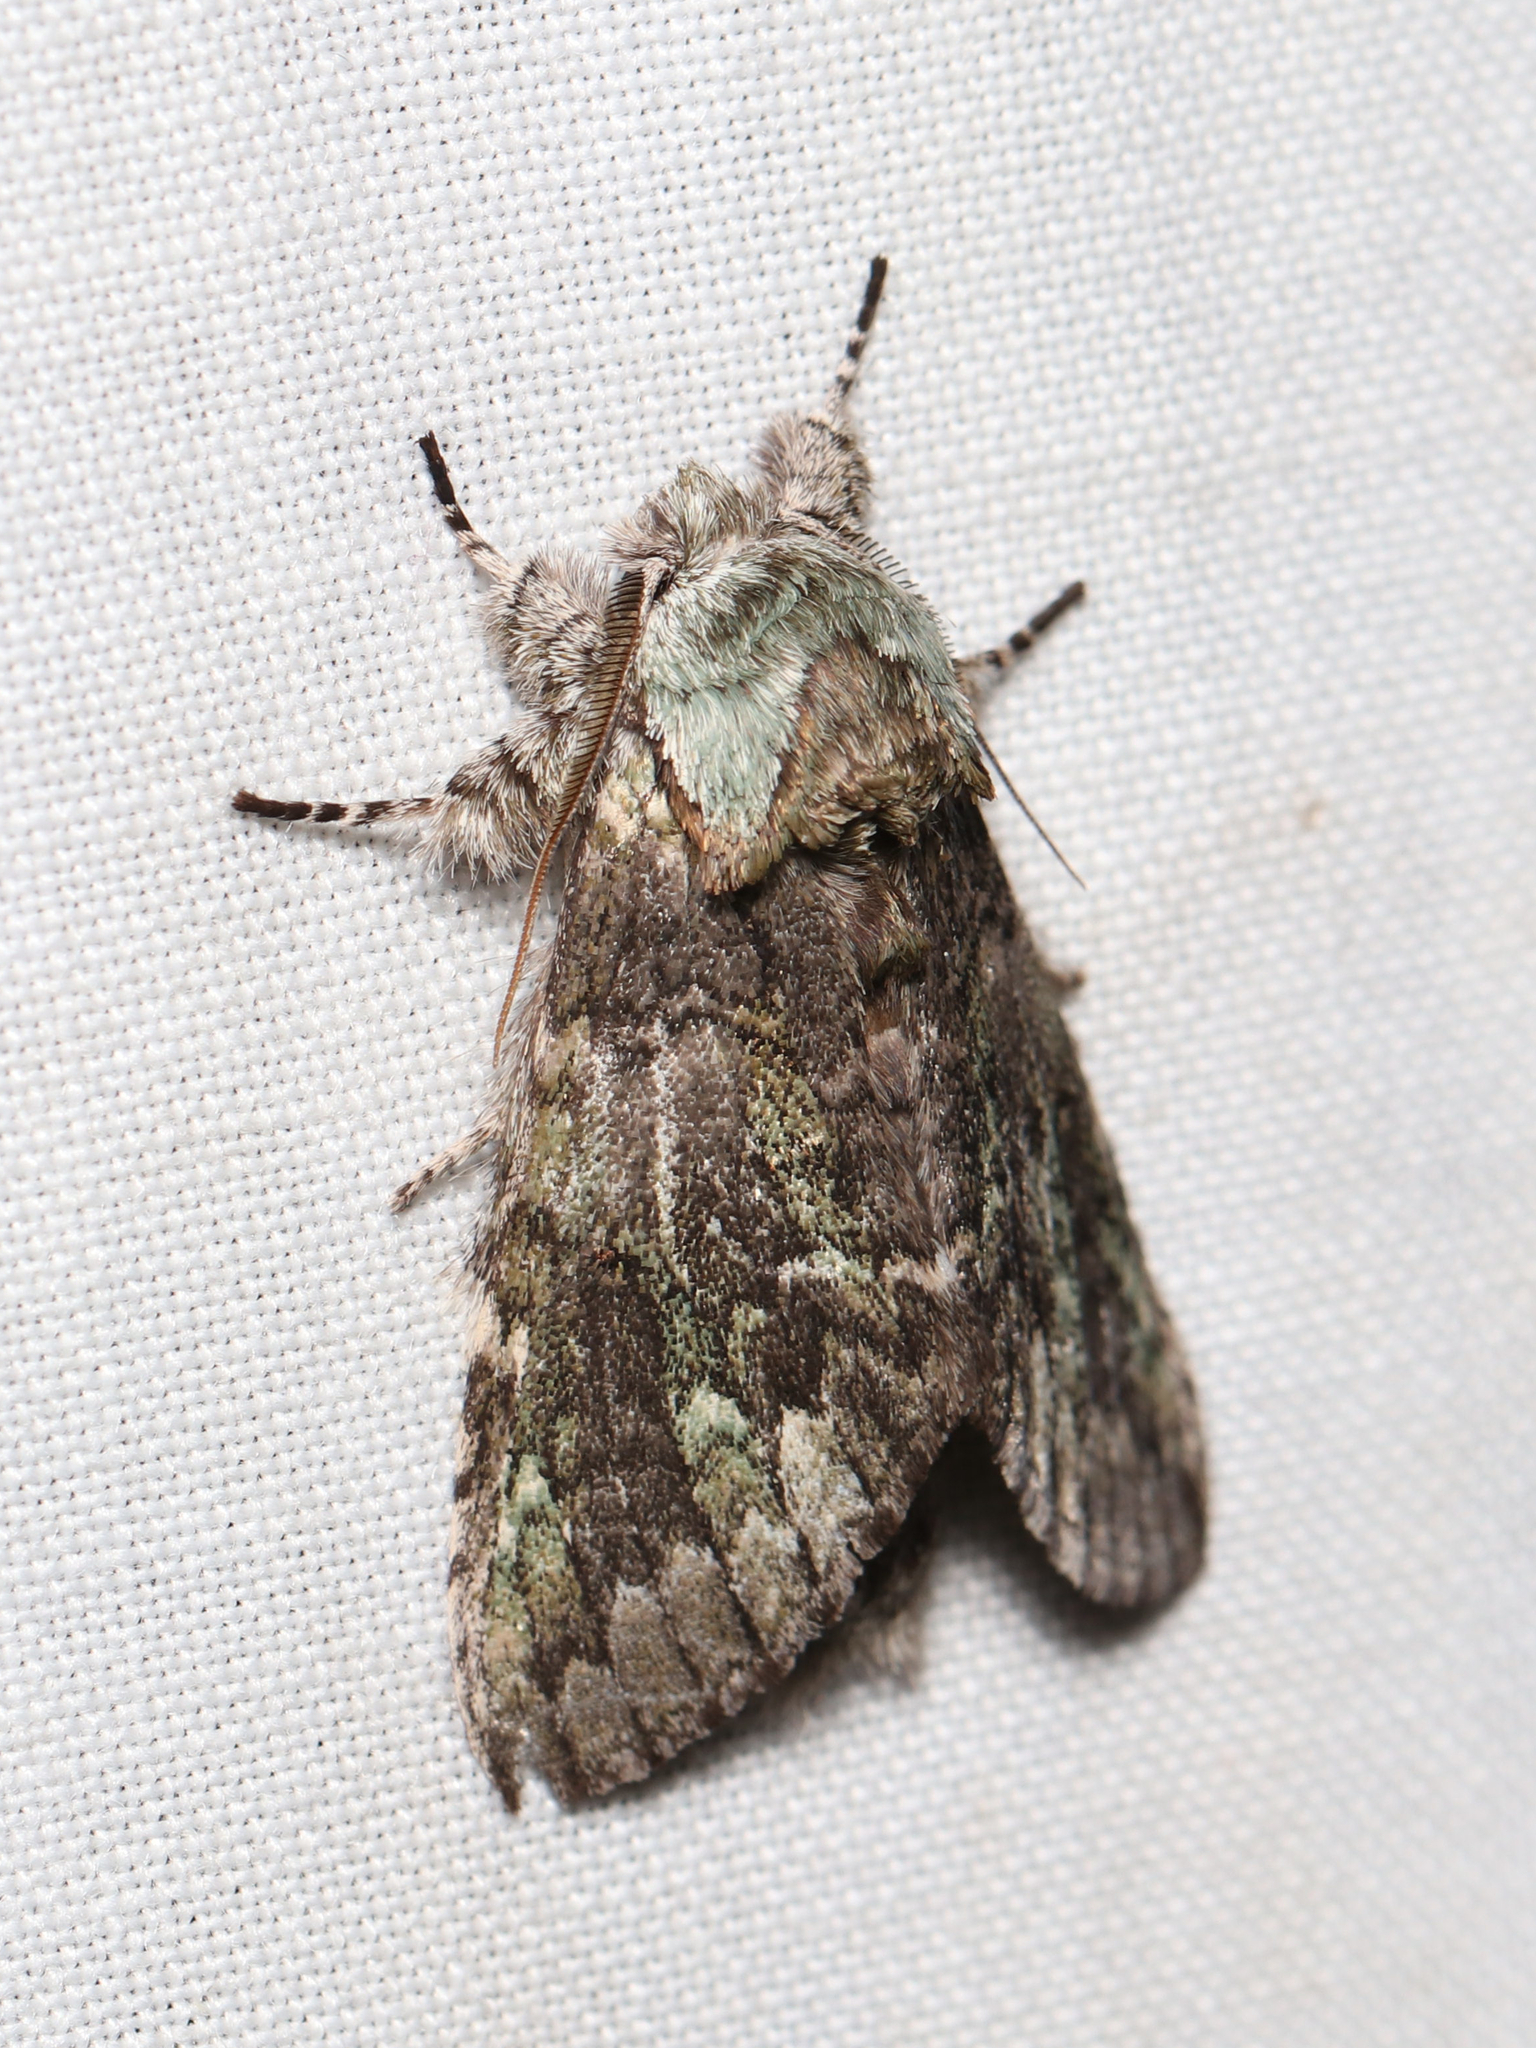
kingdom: Animalia
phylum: Arthropoda
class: Insecta
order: Lepidoptera
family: Notodontidae
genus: Macrurocampa
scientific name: Macrurocampa marthesia
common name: Mottled prominent
